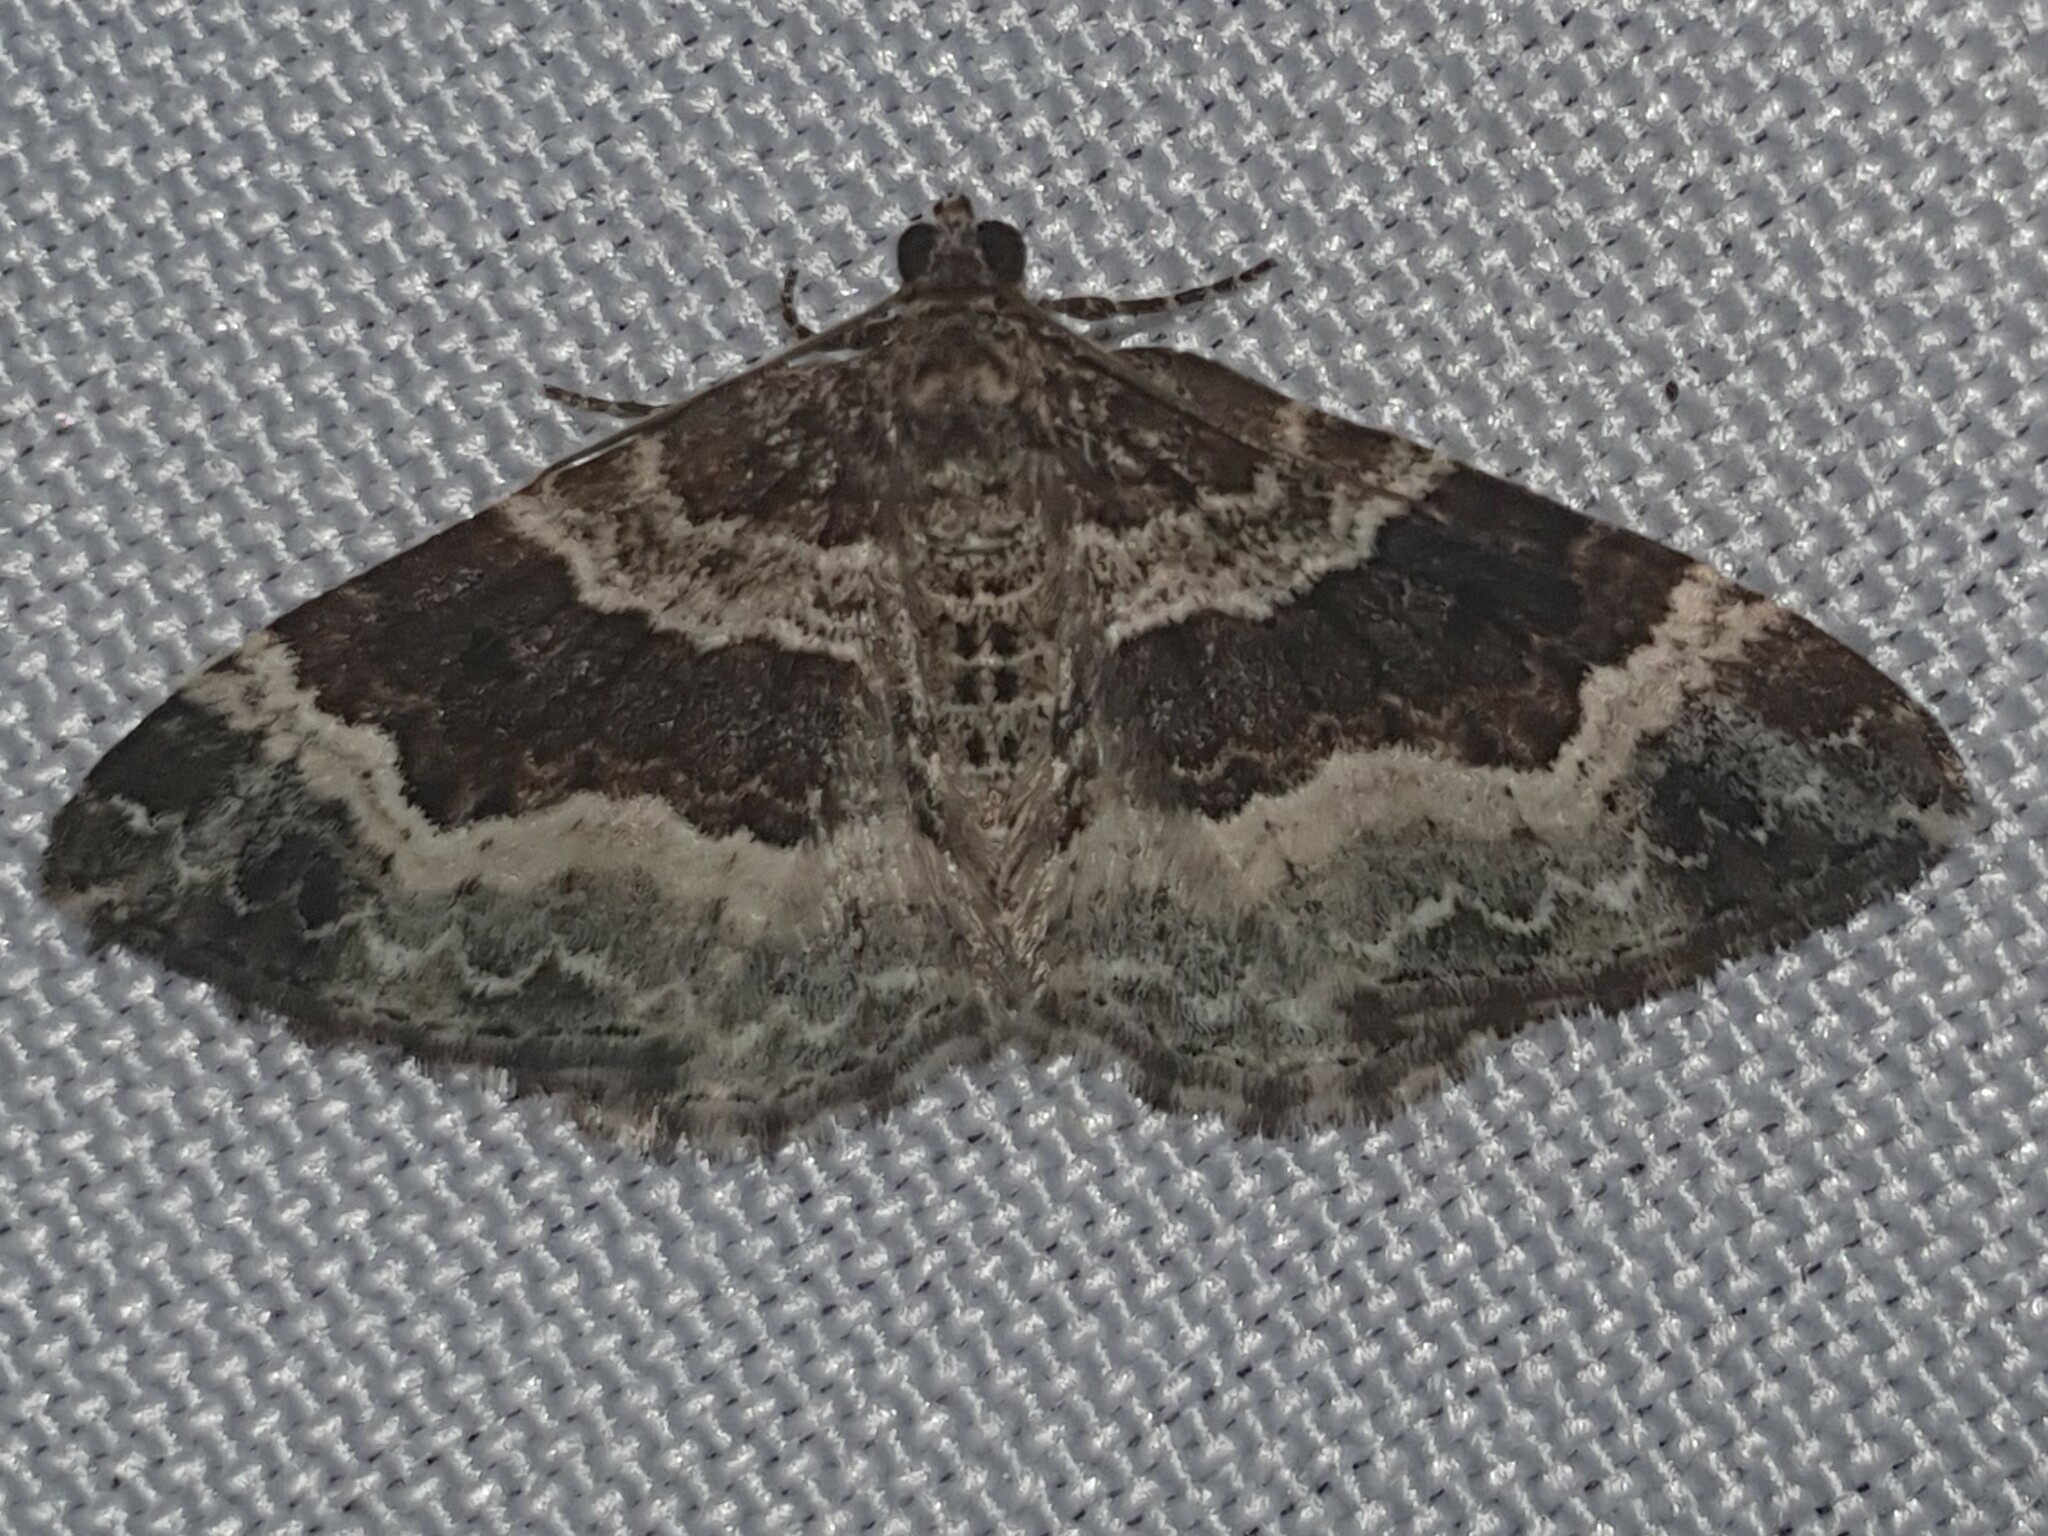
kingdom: Animalia
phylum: Arthropoda
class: Insecta
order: Lepidoptera
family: Geometridae
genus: Epirrhoe
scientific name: Epirrhoe alternata
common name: Common carpet
